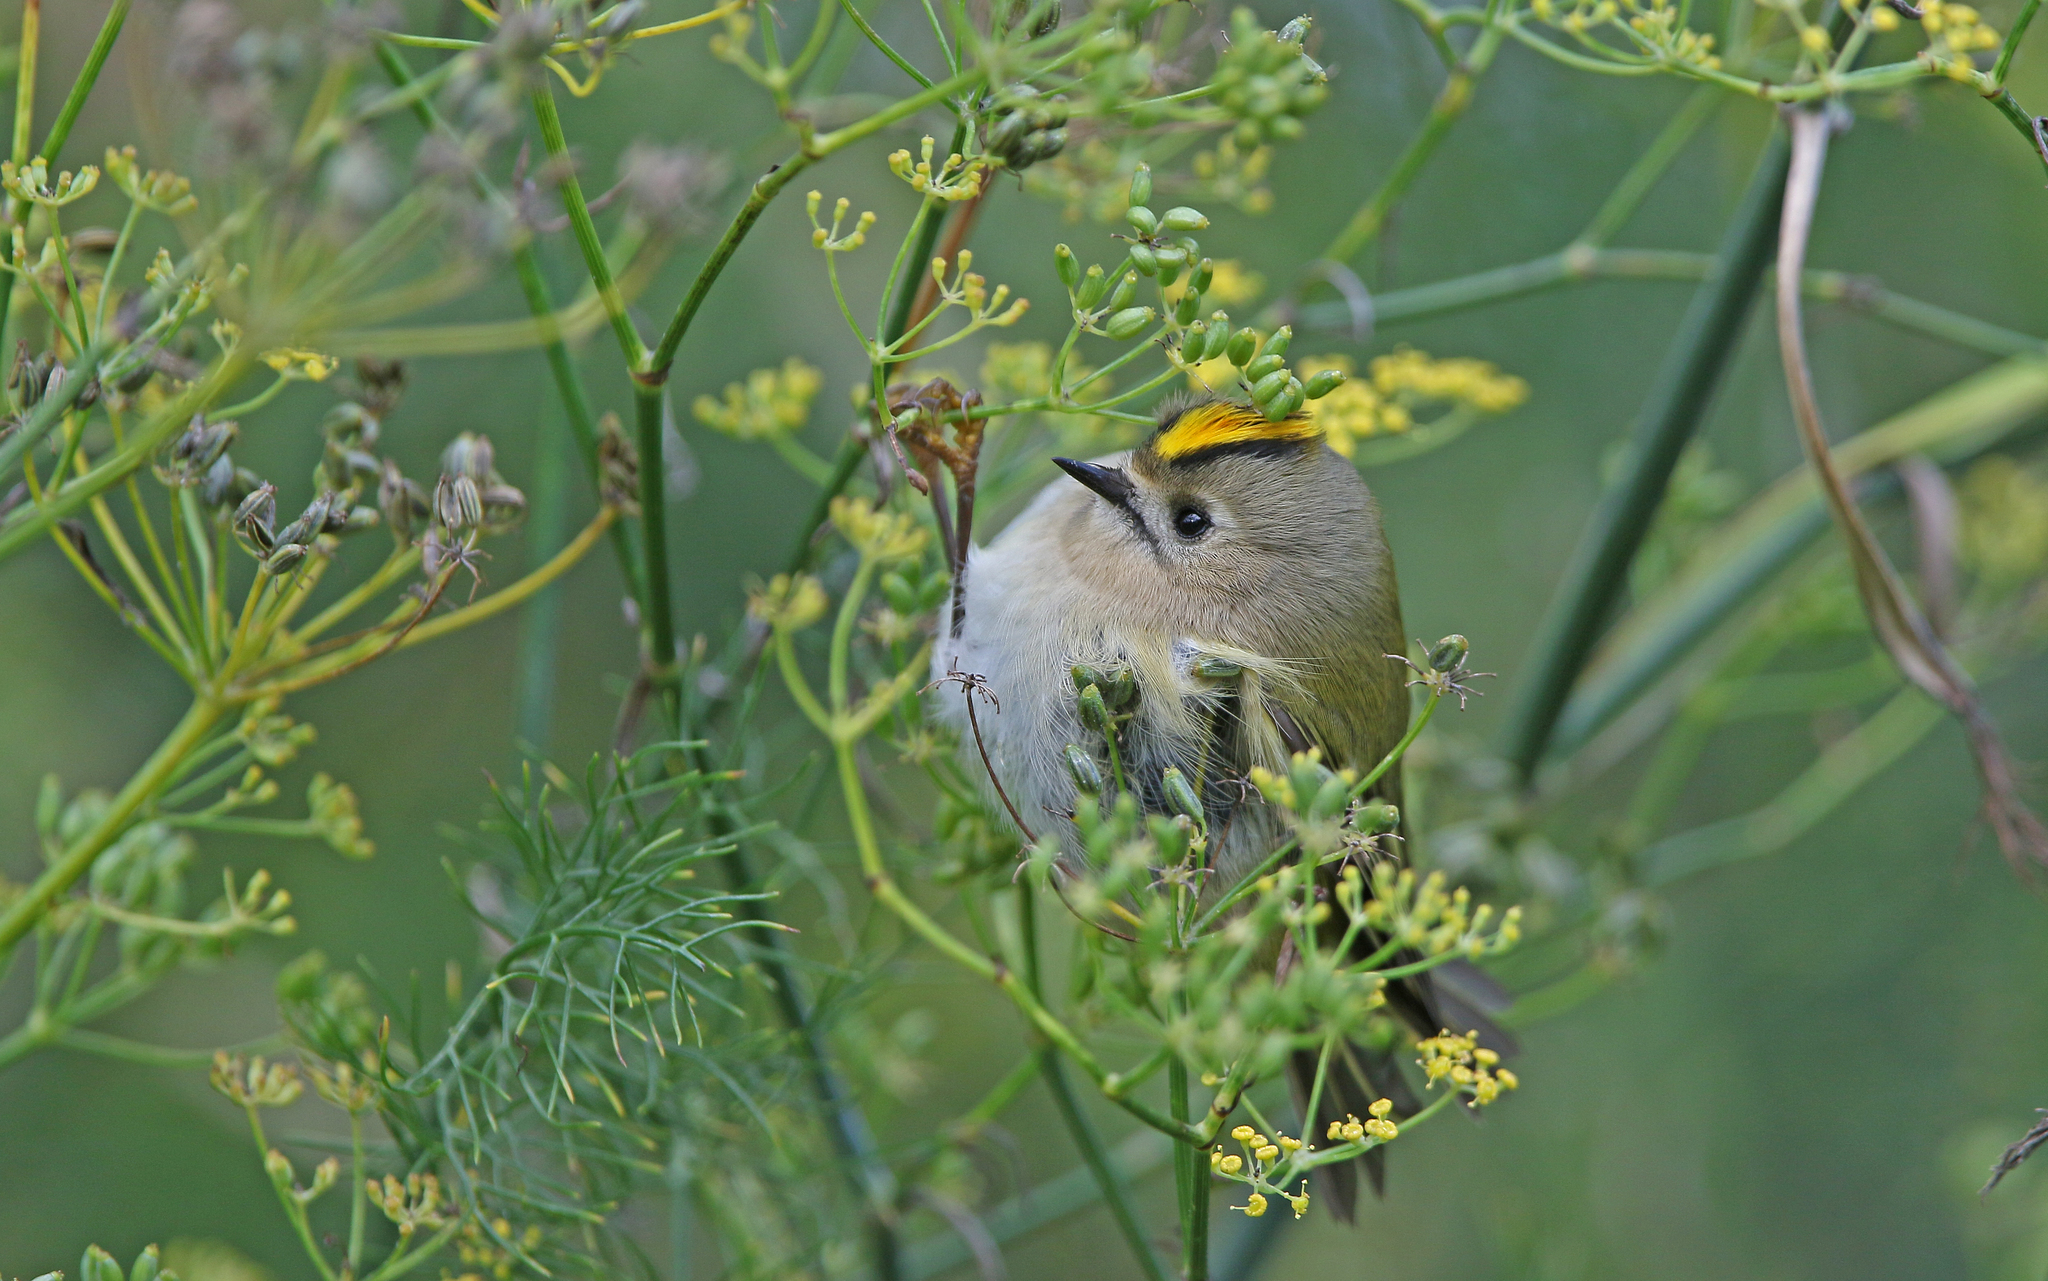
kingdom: Animalia
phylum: Chordata
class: Aves
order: Passeriformes
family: Regulidae
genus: Regulus
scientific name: Regulus regulus
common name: Goldcrest
